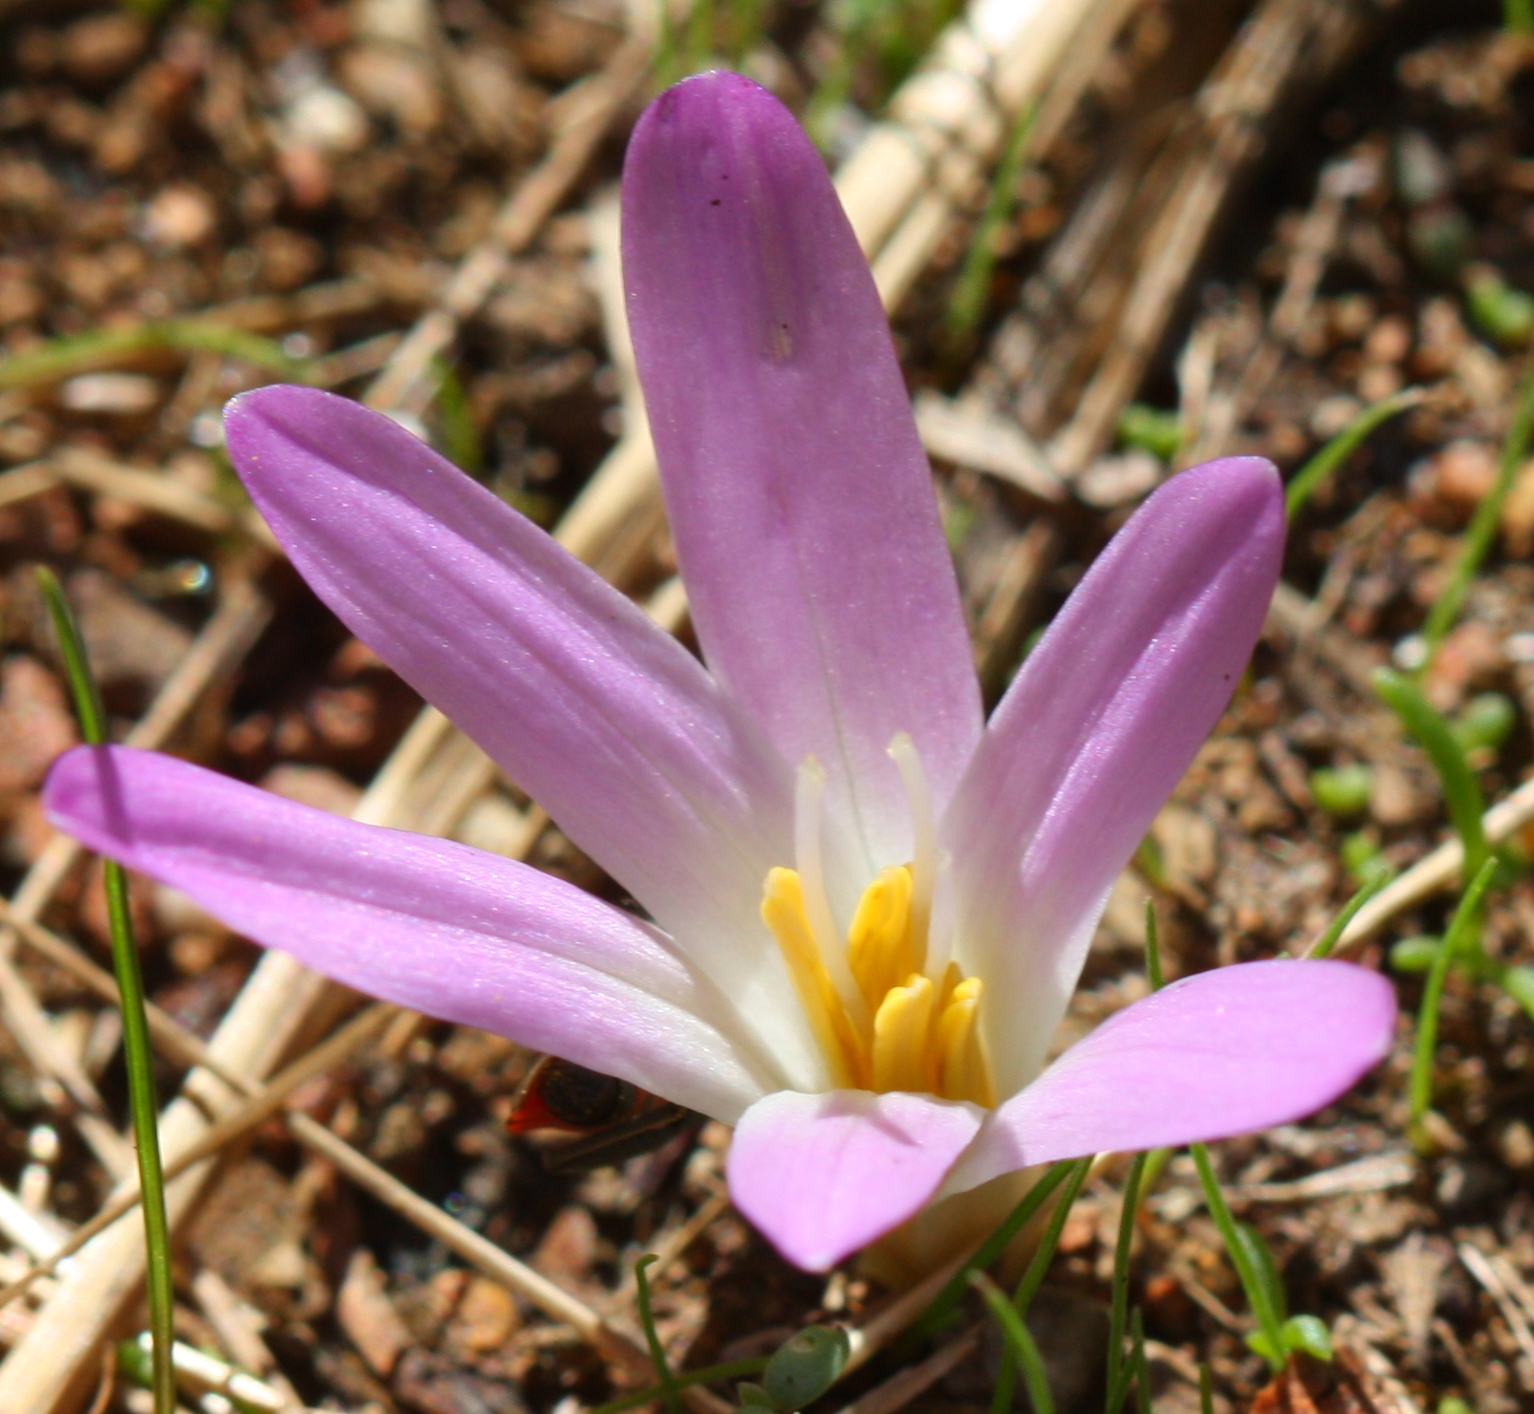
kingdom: Plantae
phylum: Tracheophyta
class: Liliopsida
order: Liliales
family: Colchicaceae
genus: Colchicum
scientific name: Colchicum montanum
